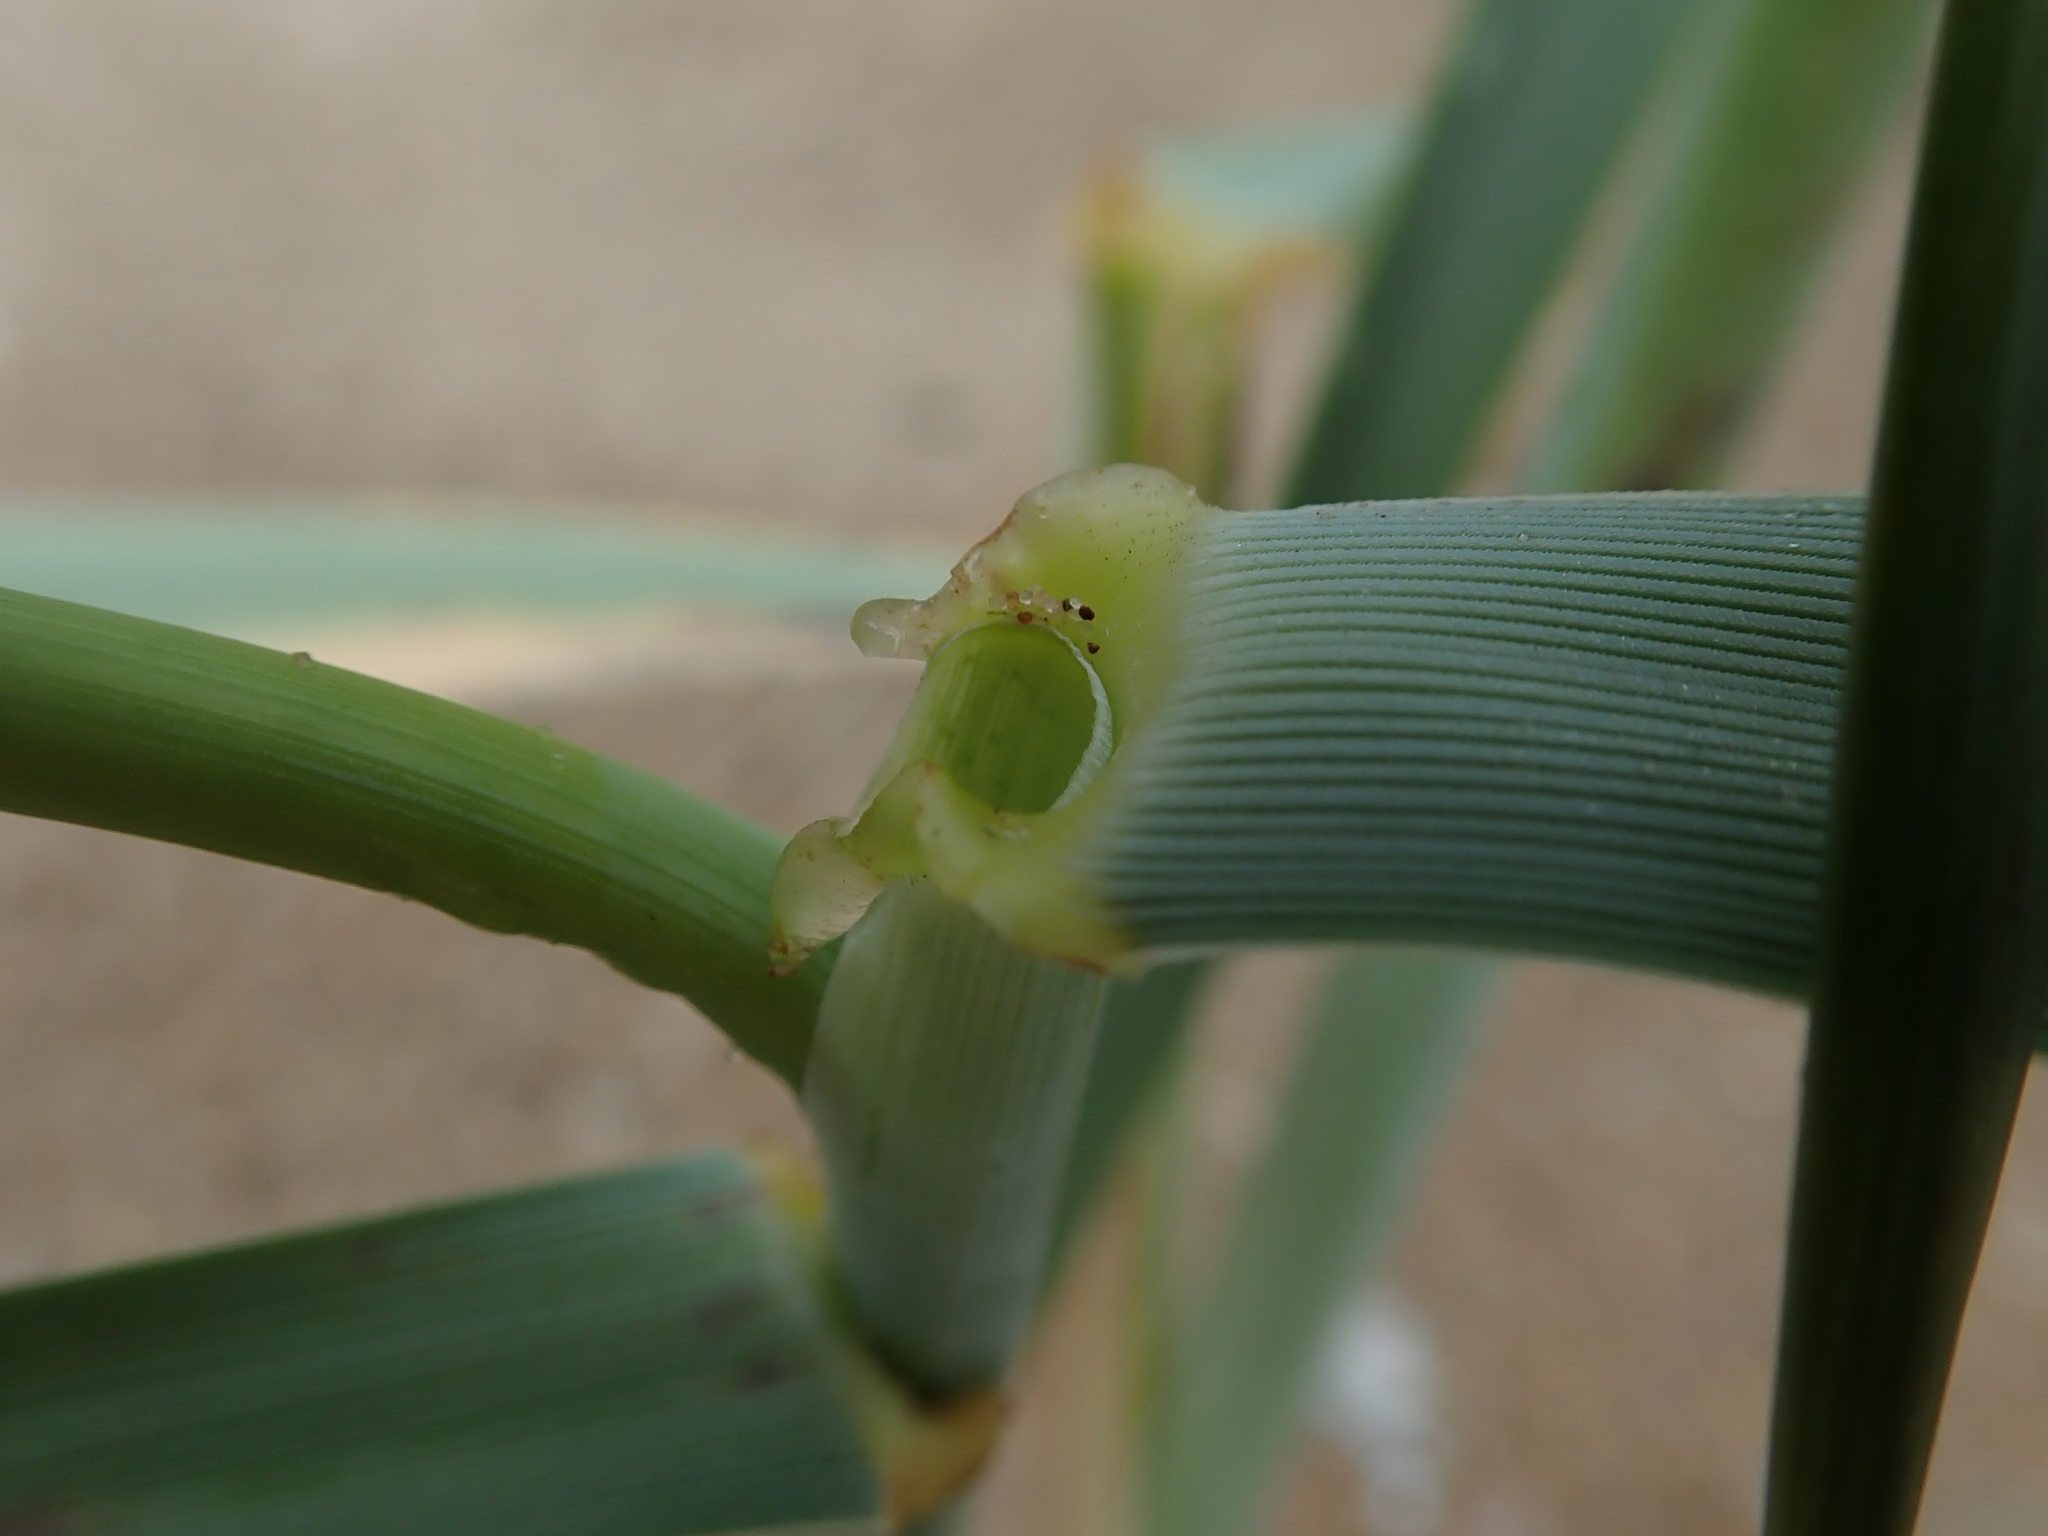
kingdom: Plantae
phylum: Tracheophyta
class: Liliopsida
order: Poales
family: Poaceae
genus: Leymus
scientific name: Leymus arenarius
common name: Lyme-grass
